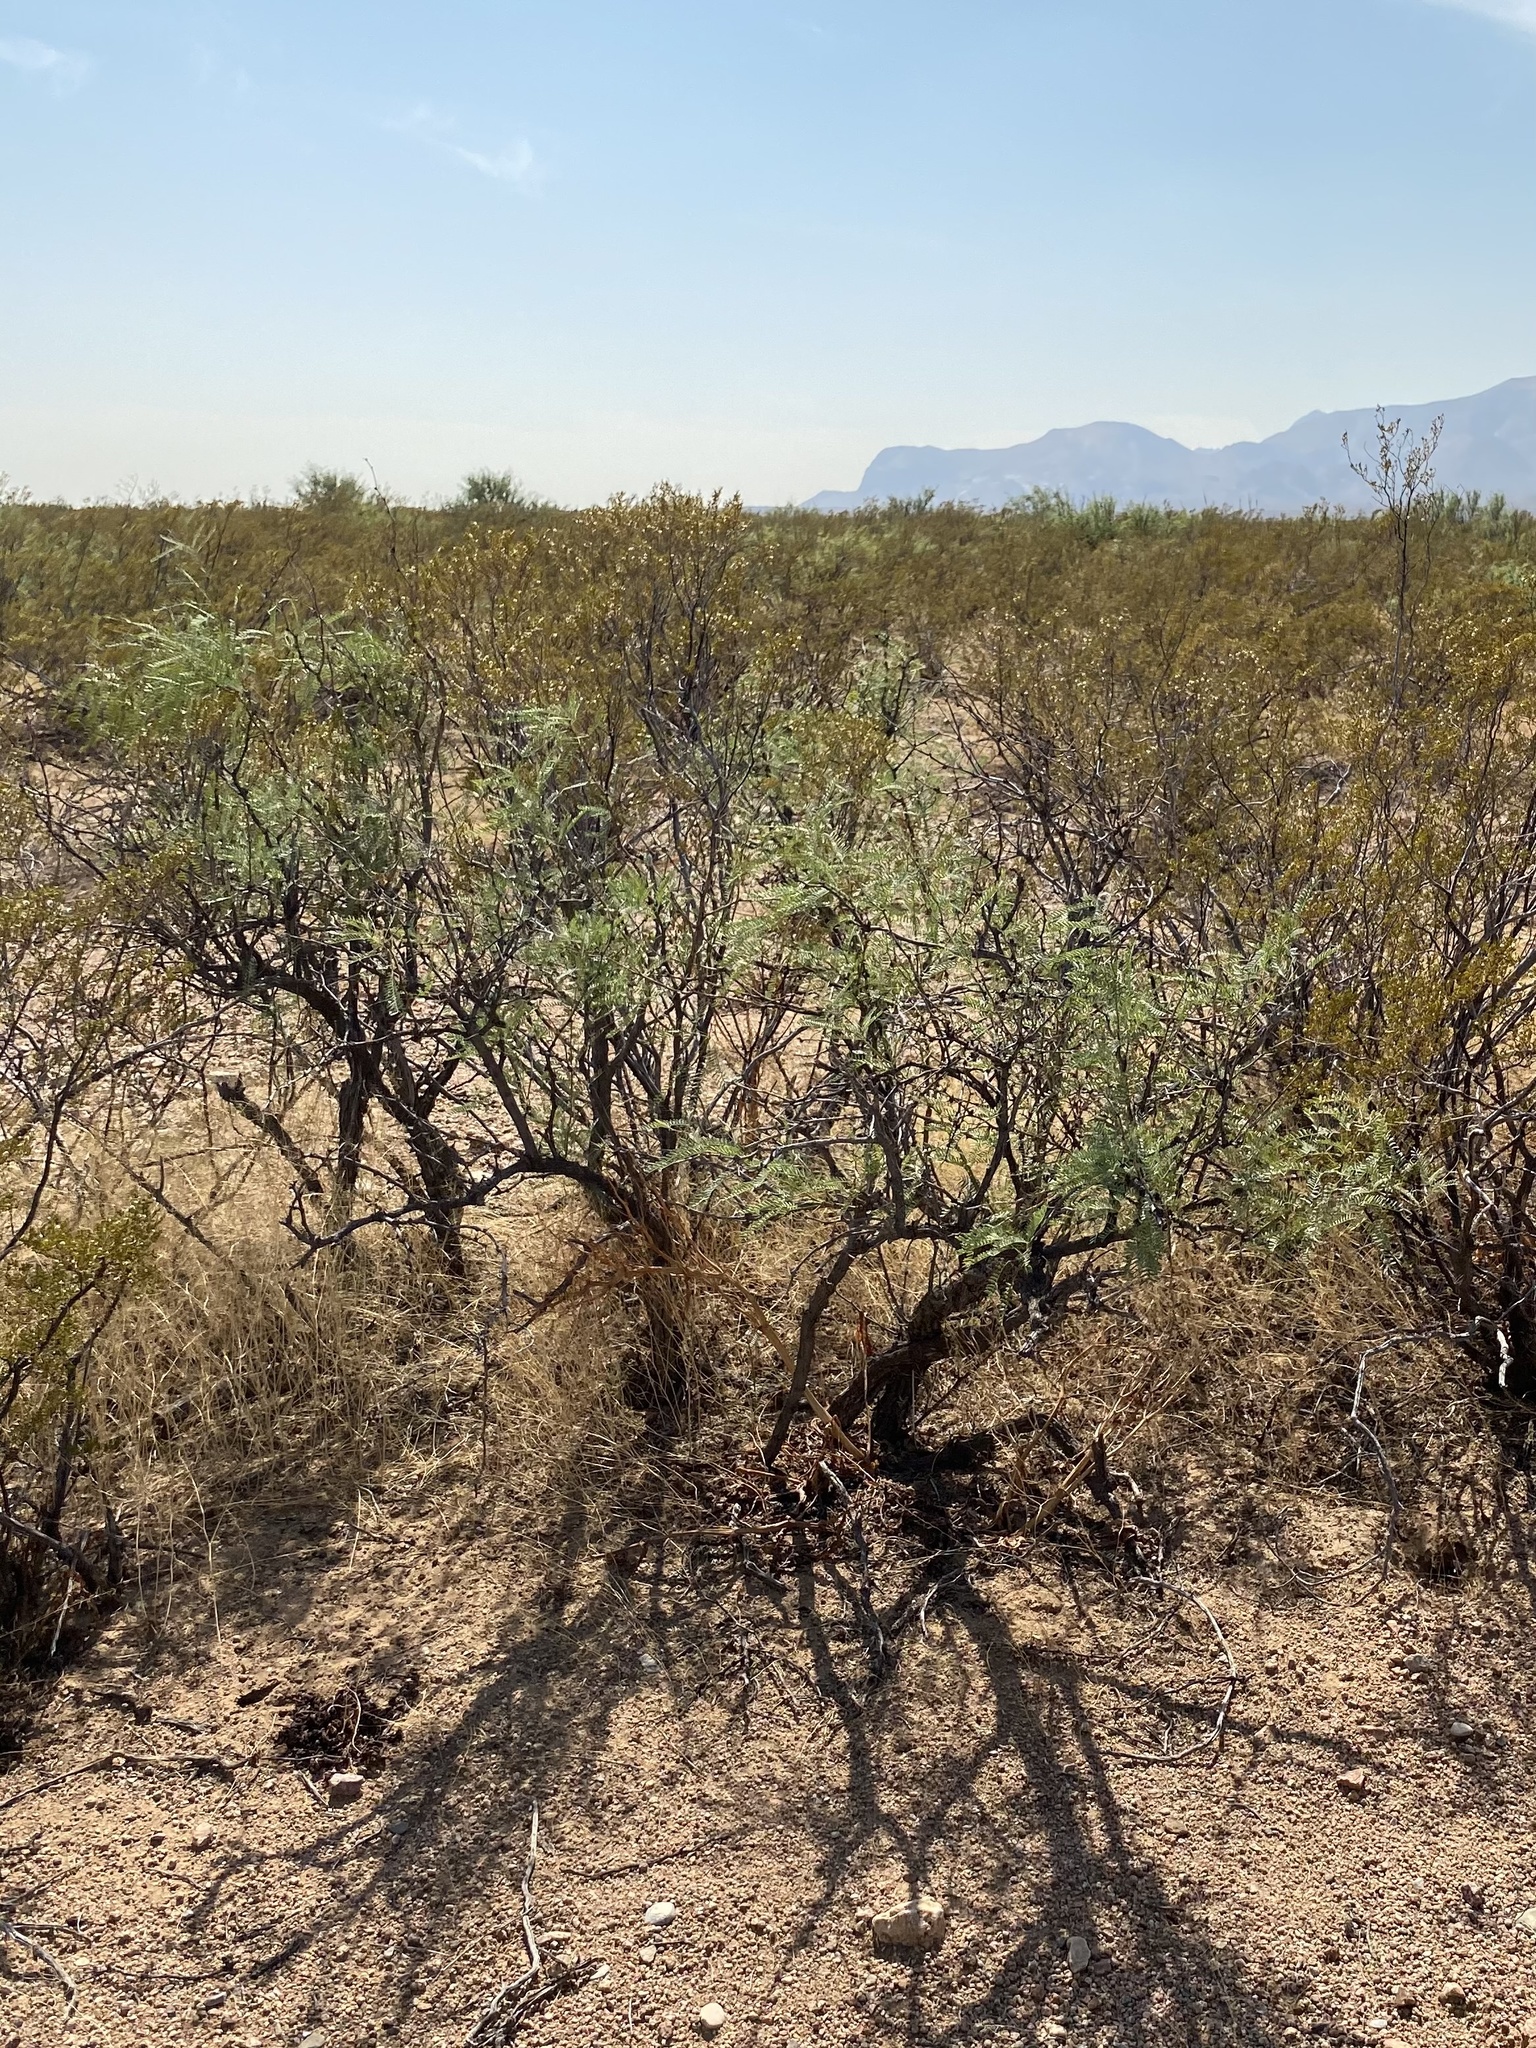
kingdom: Plantae
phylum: Tracheophyta
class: Magnoliopsida
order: Fabales
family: Fabaceae
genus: Prosopis
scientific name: Prosopis glandulosa
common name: Honey mesquite
